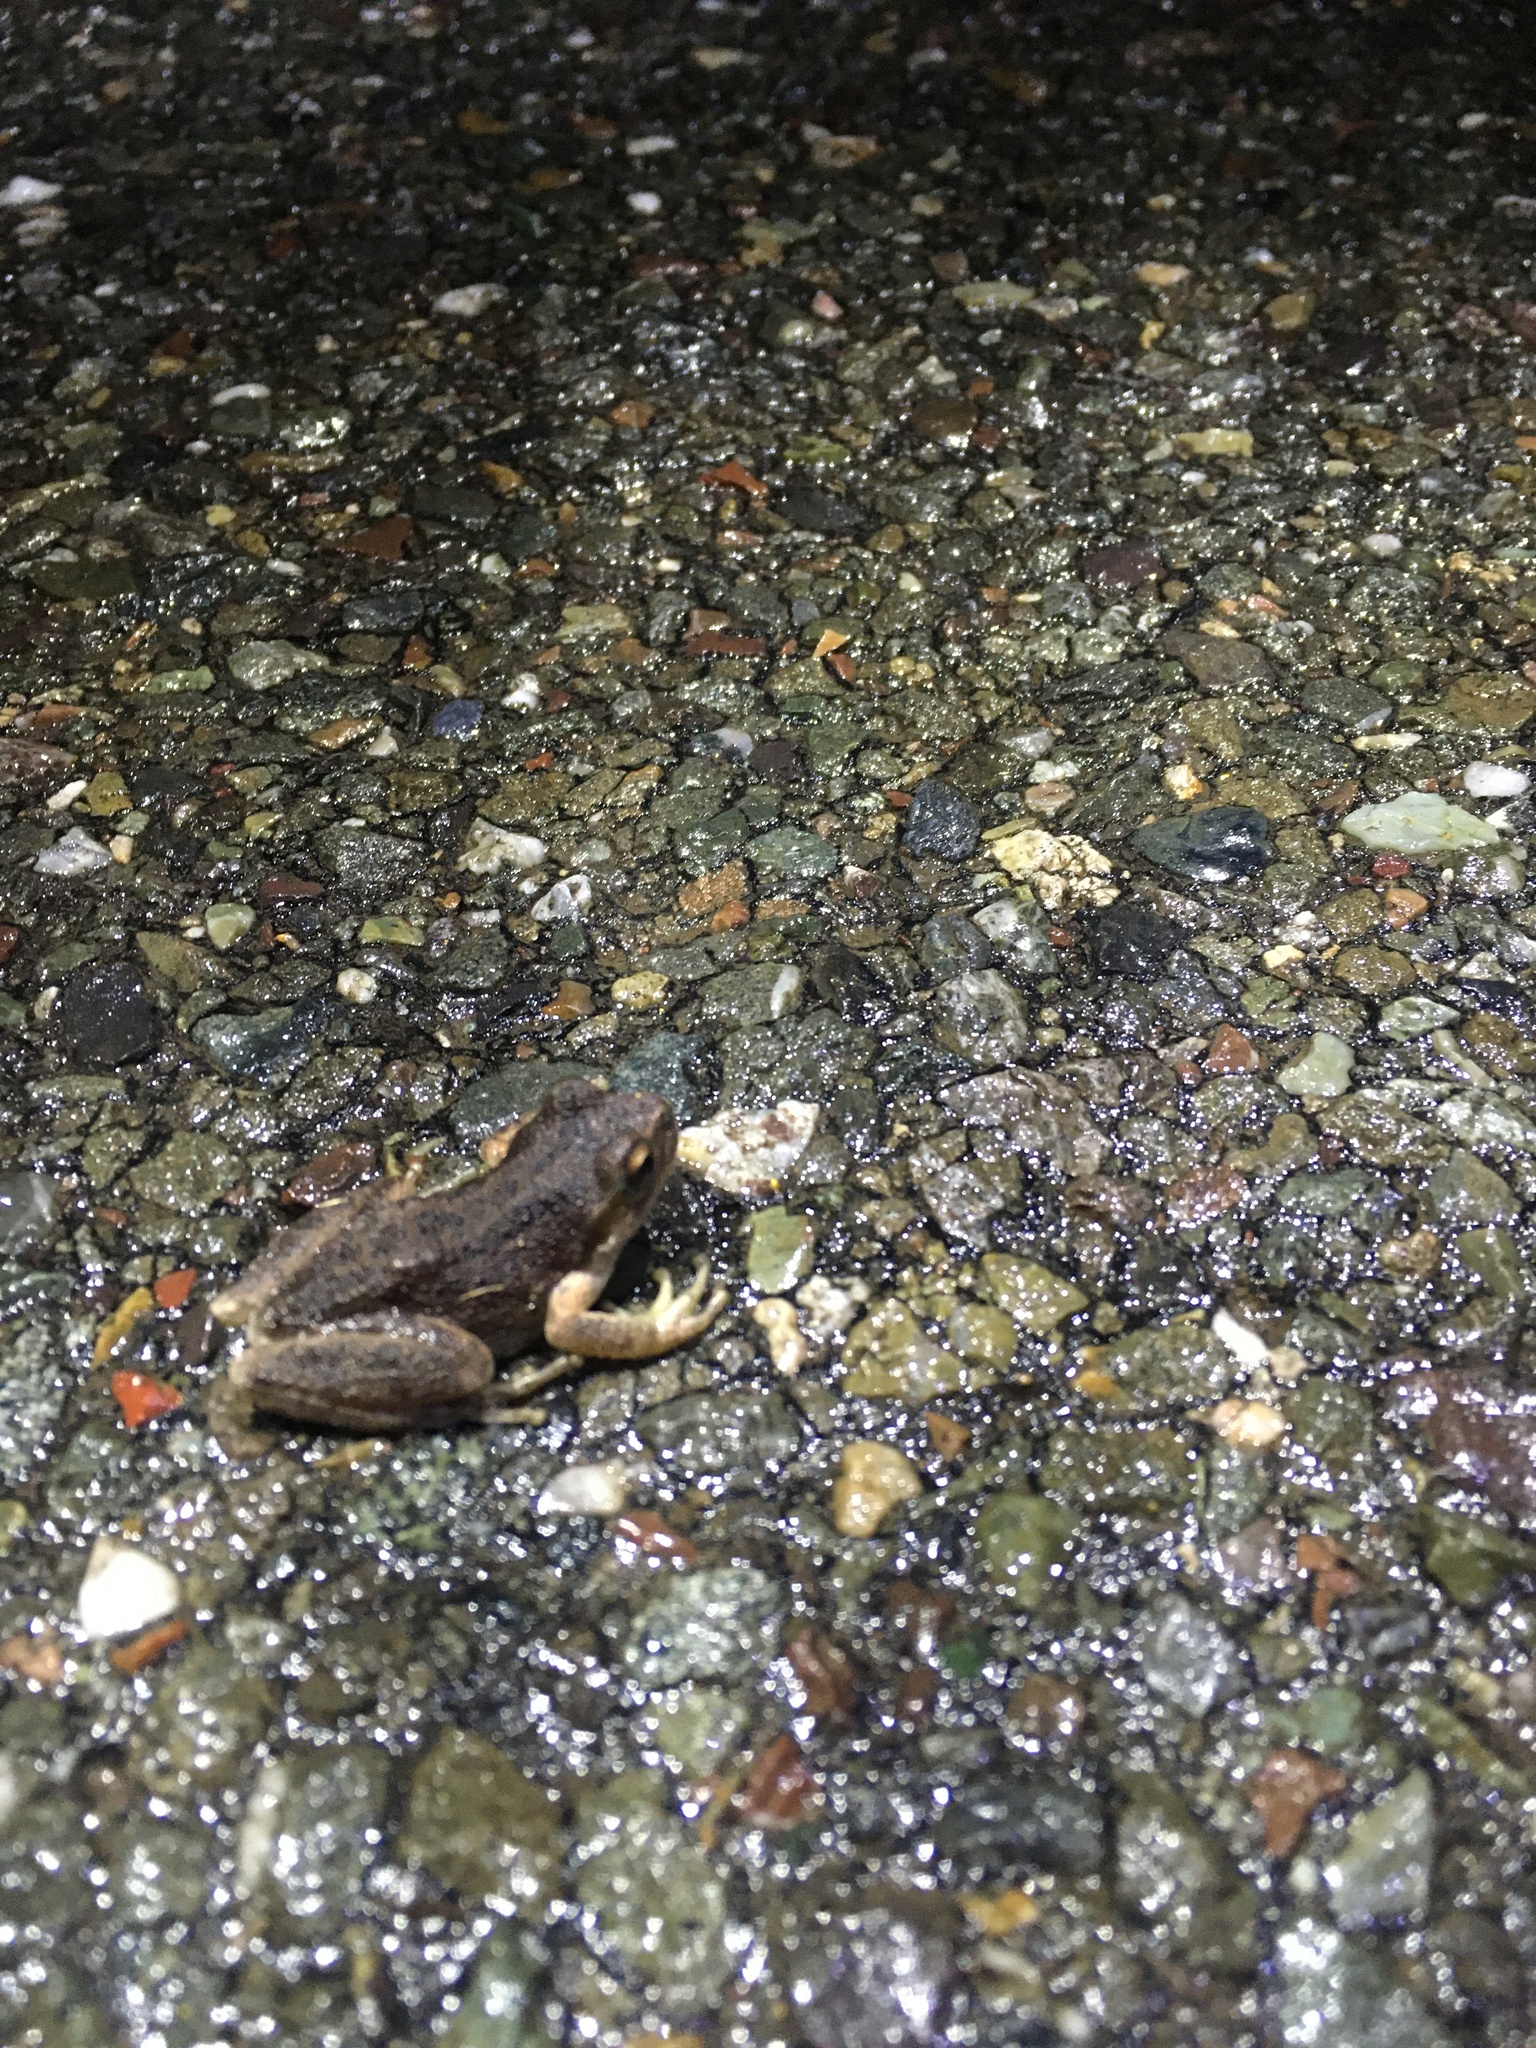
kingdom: Animalia
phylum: Chordata
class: Amphibia
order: Anura
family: Hylidae
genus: Pseudacris
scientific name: Pseudacris regilla
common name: Pacific chorus frog
